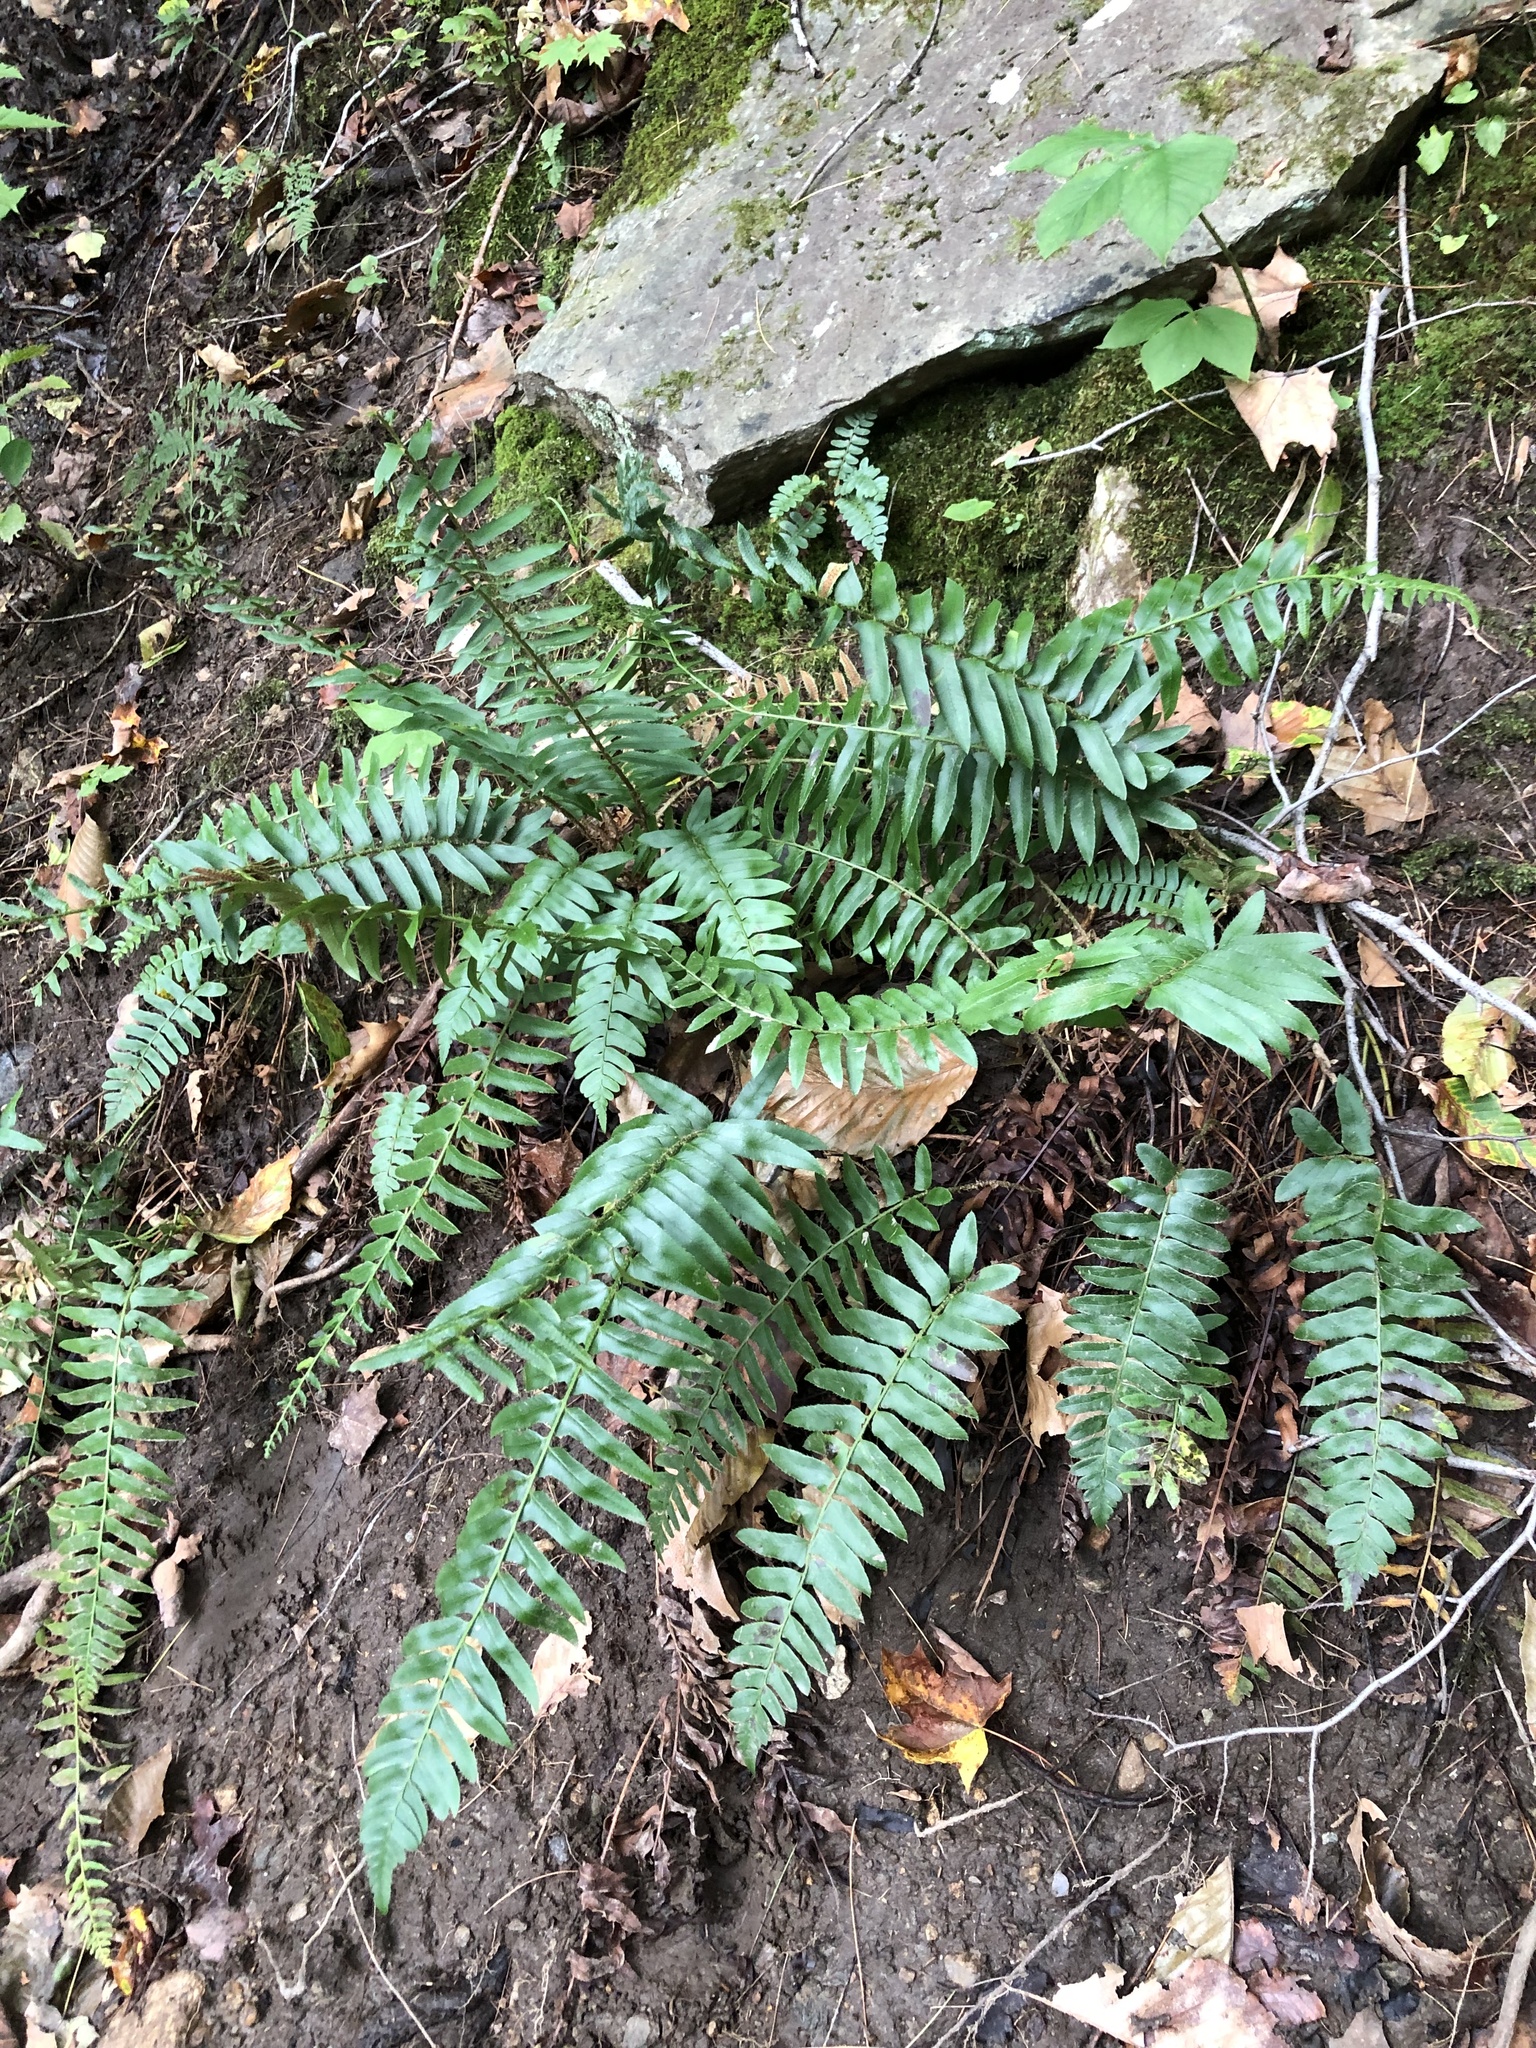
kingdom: Plantae
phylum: Tracheophyta
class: Polypodiopsida
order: Polypodiales
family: Dryopteridaceae
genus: Polystichum
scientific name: Polystichum acrostichoides
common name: Christmas fern
